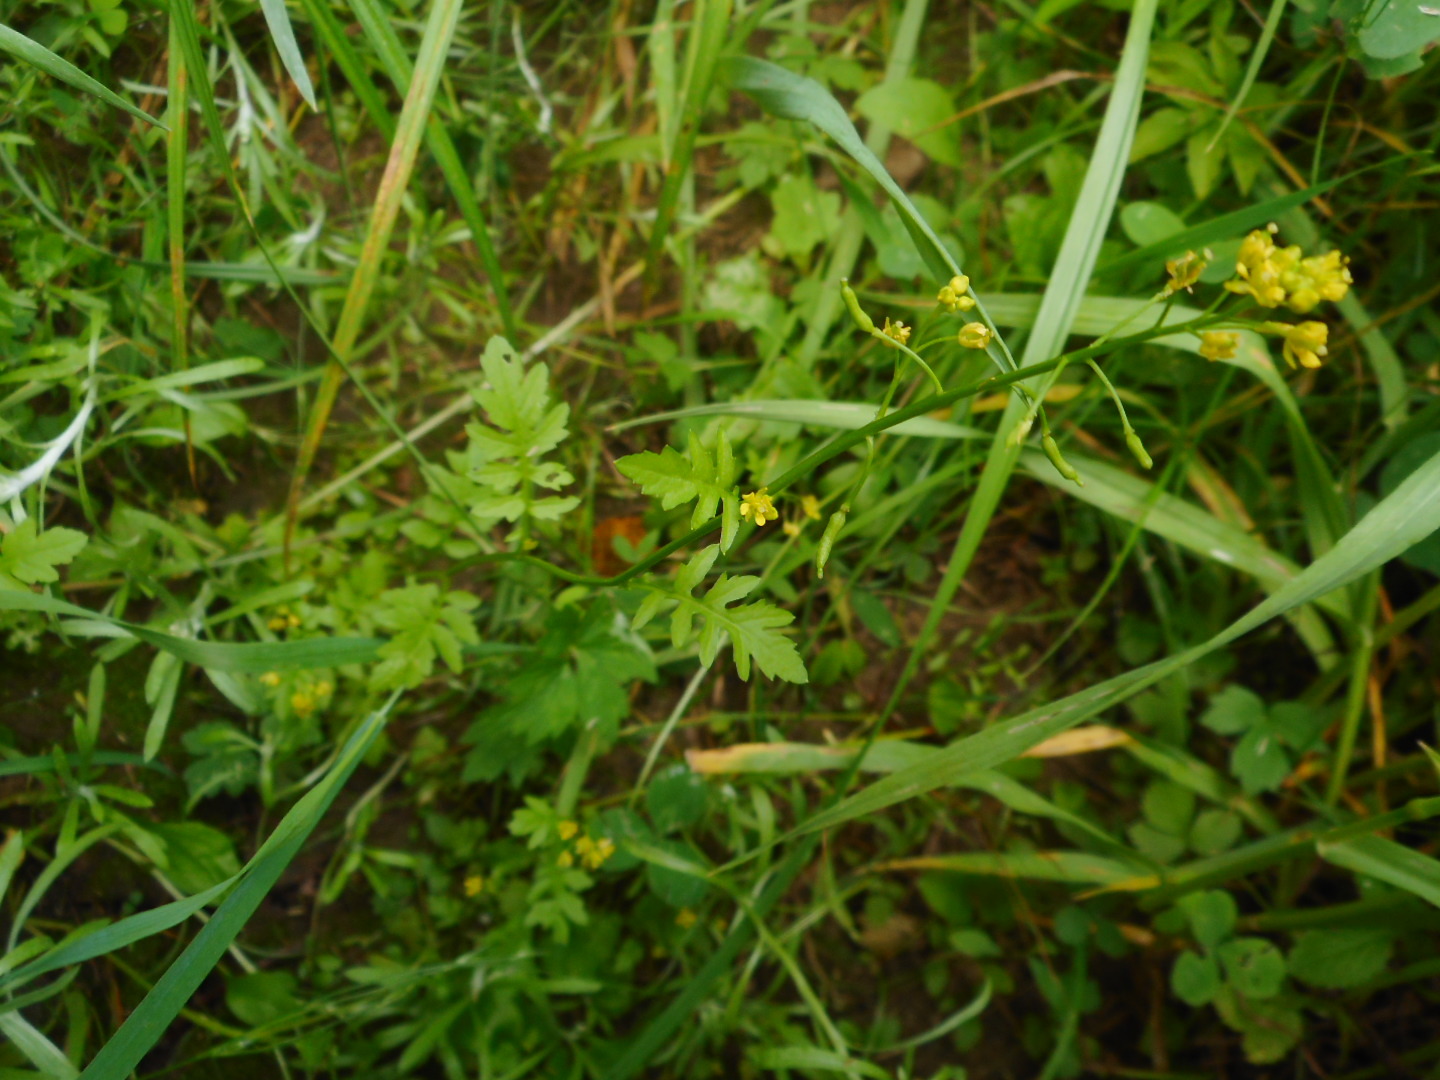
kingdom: Plantae
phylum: Tracheophyta
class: Magnoliopsida
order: Brassicales
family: Brassicaceae
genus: Rorippa
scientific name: Rorippa palustris
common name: Marsh yellow-cress
